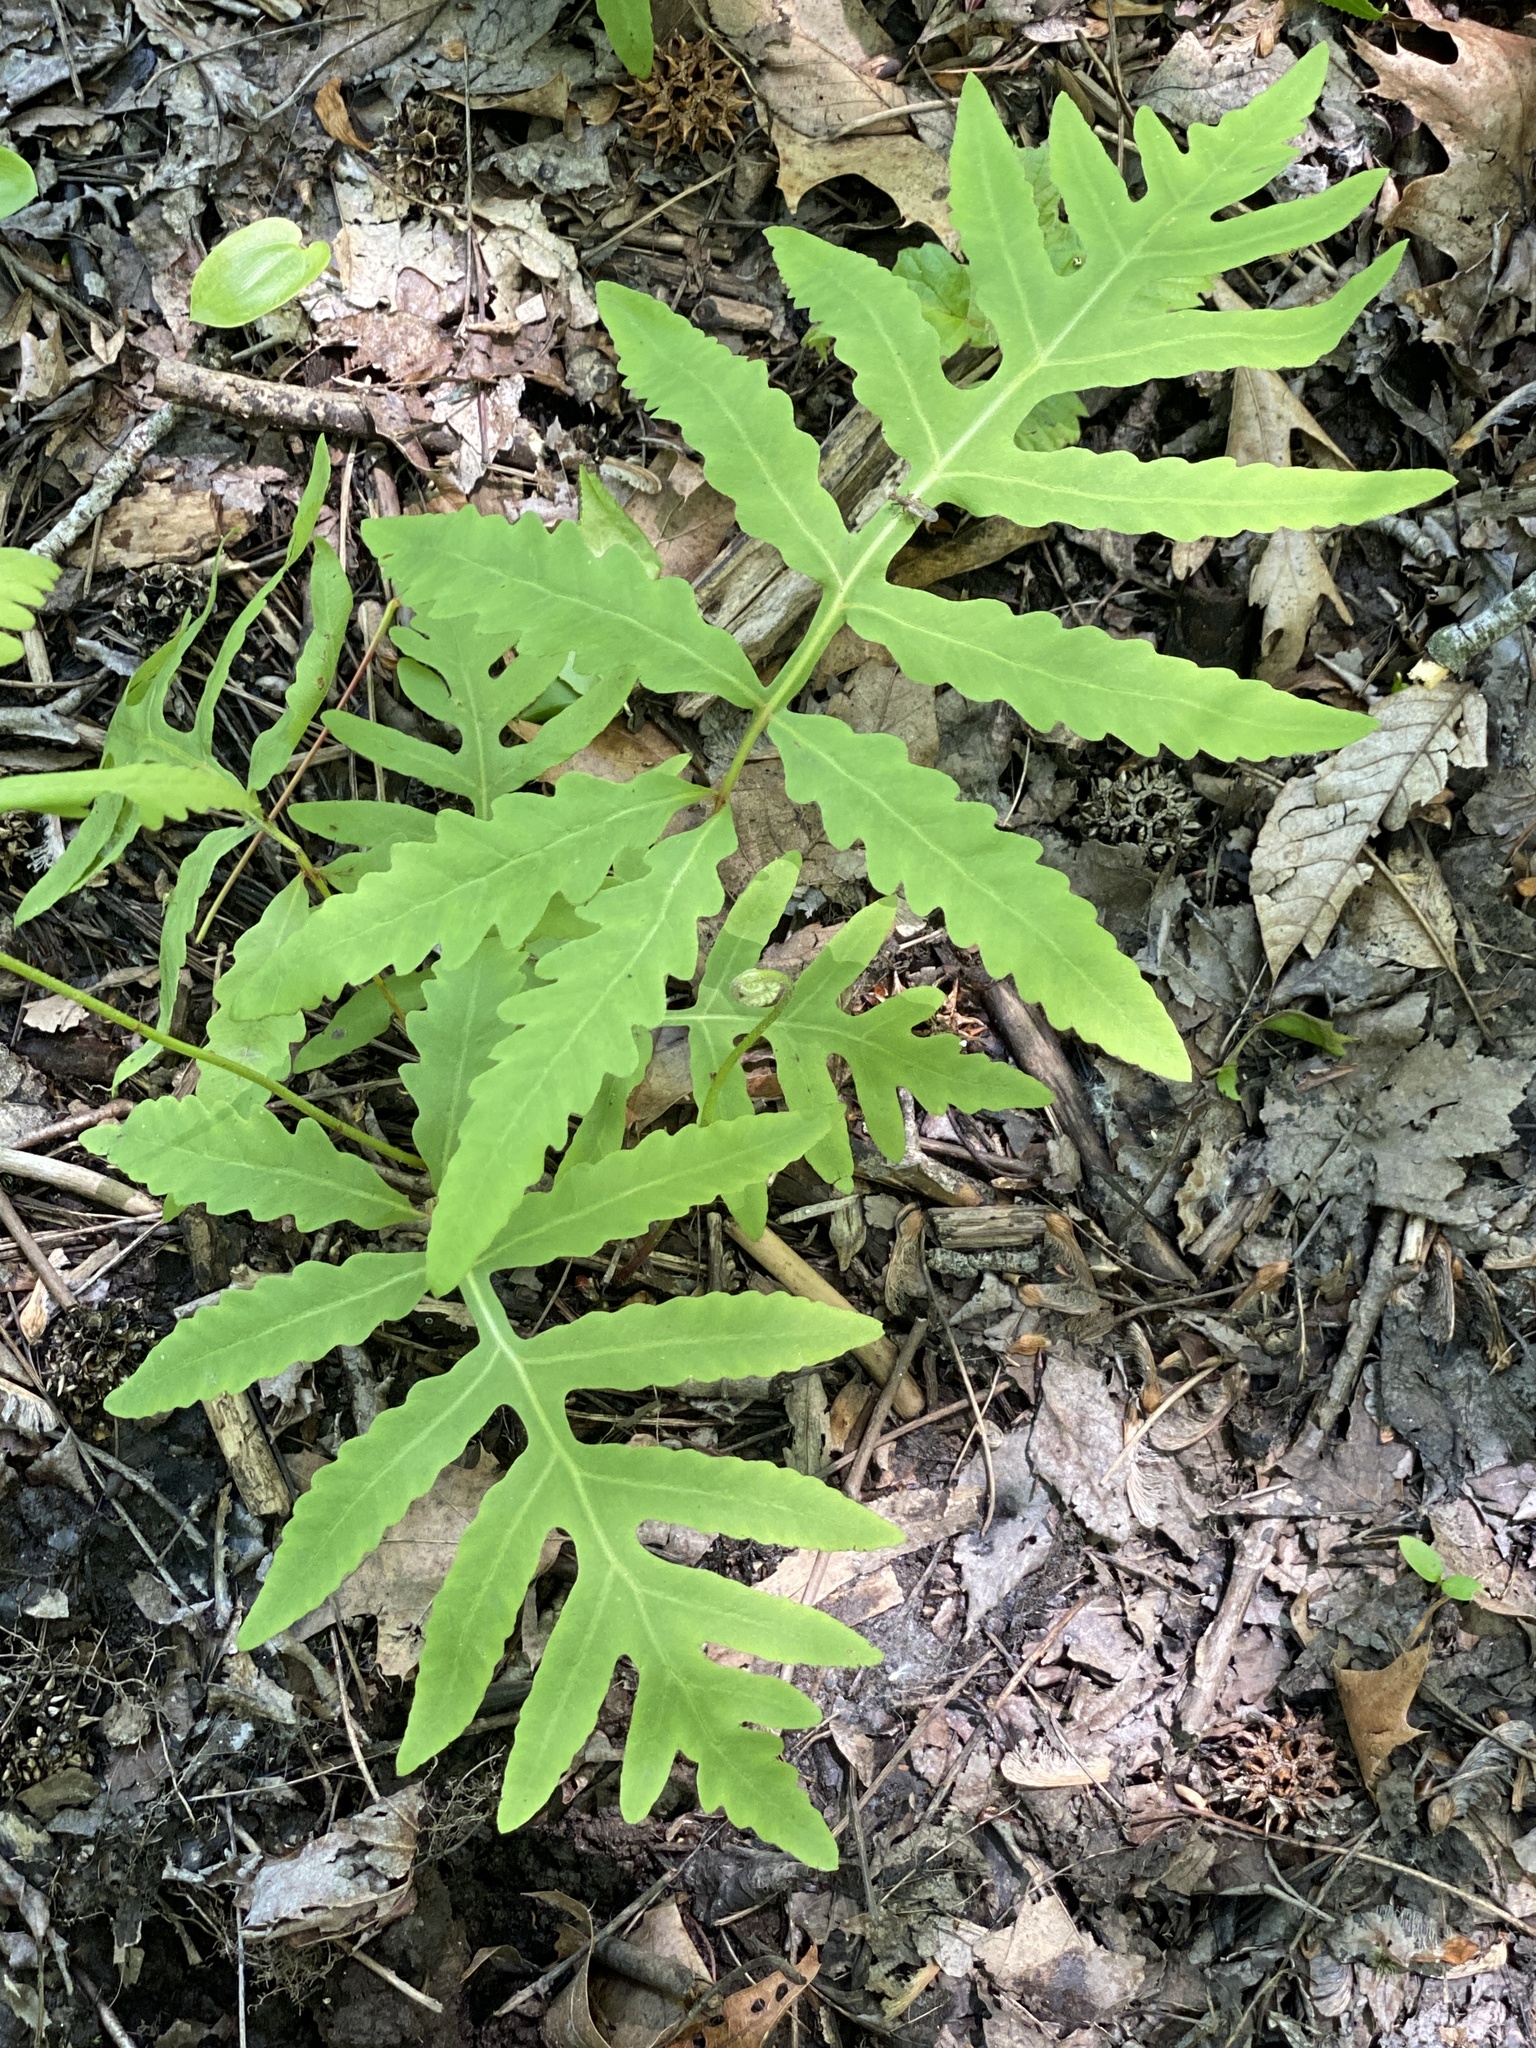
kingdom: Plantae
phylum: Tracheophyta
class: Polypodiopsida
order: Polypodiales
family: Onocleaceae
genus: Onoclea
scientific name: Onoclea sensibilis
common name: Sensitive fern
